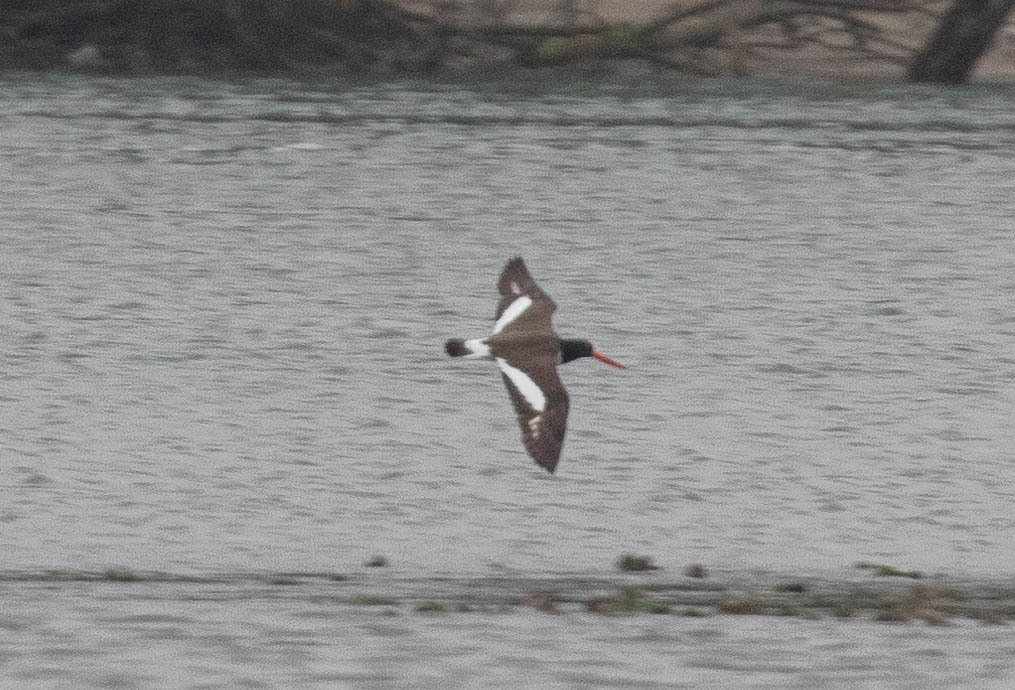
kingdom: Animalia
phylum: Chordata
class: Aves
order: Charadriiformes
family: Haematopodidae
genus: Haematopus
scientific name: Haematopus palliatus
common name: American oystercatcher
